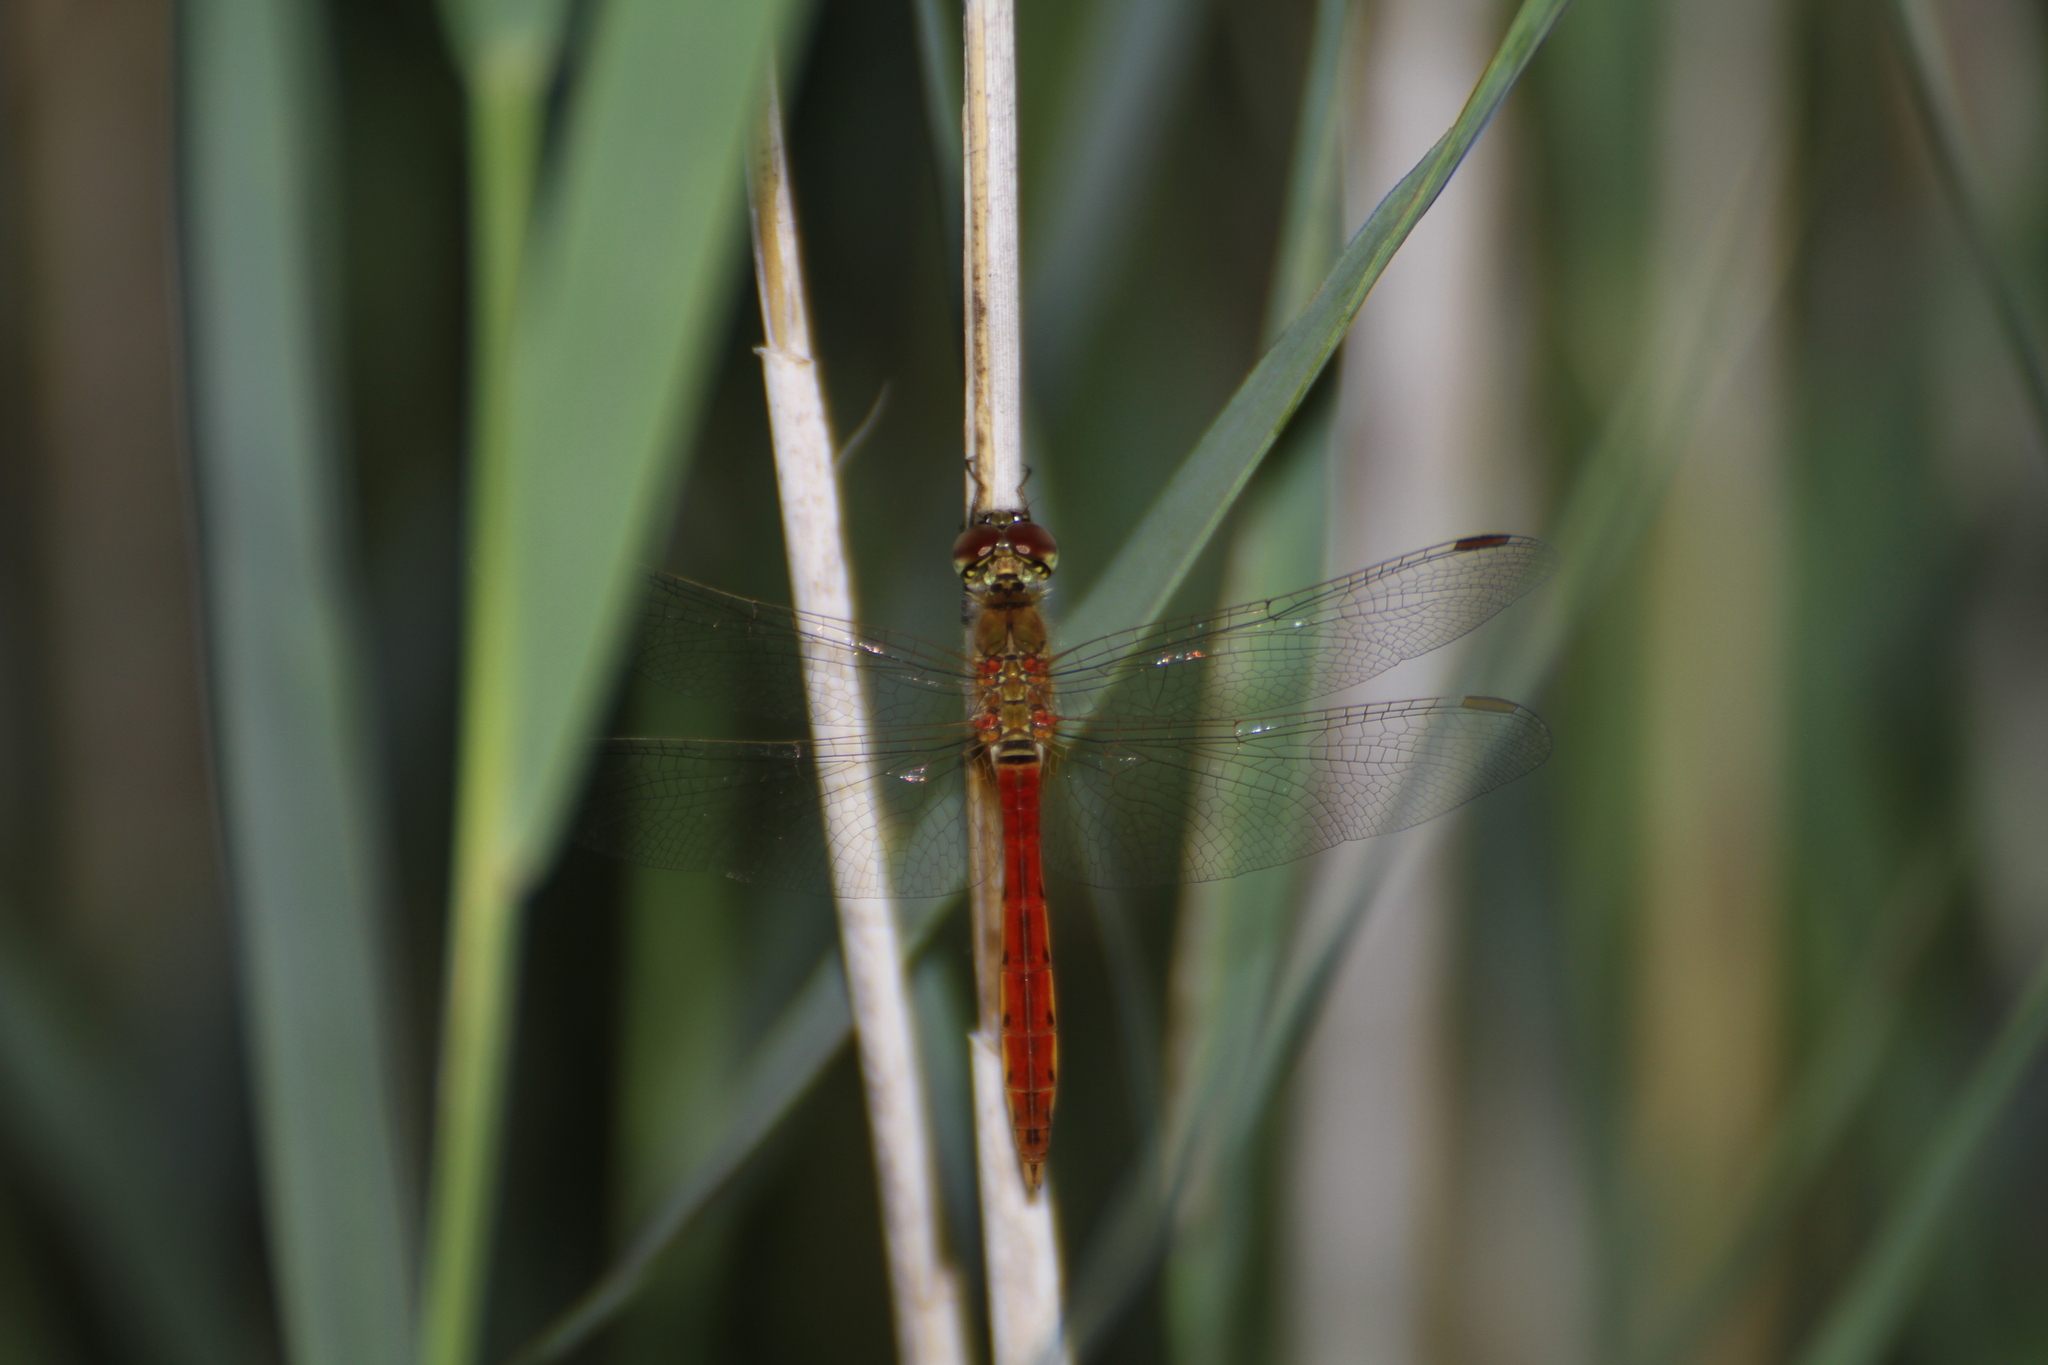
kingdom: Animalia
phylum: Arthropoda
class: Insecta
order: Odonata
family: Libellulidae
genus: Sympetrum
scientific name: Sympetrum depressiusculum
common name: Spotted darter
